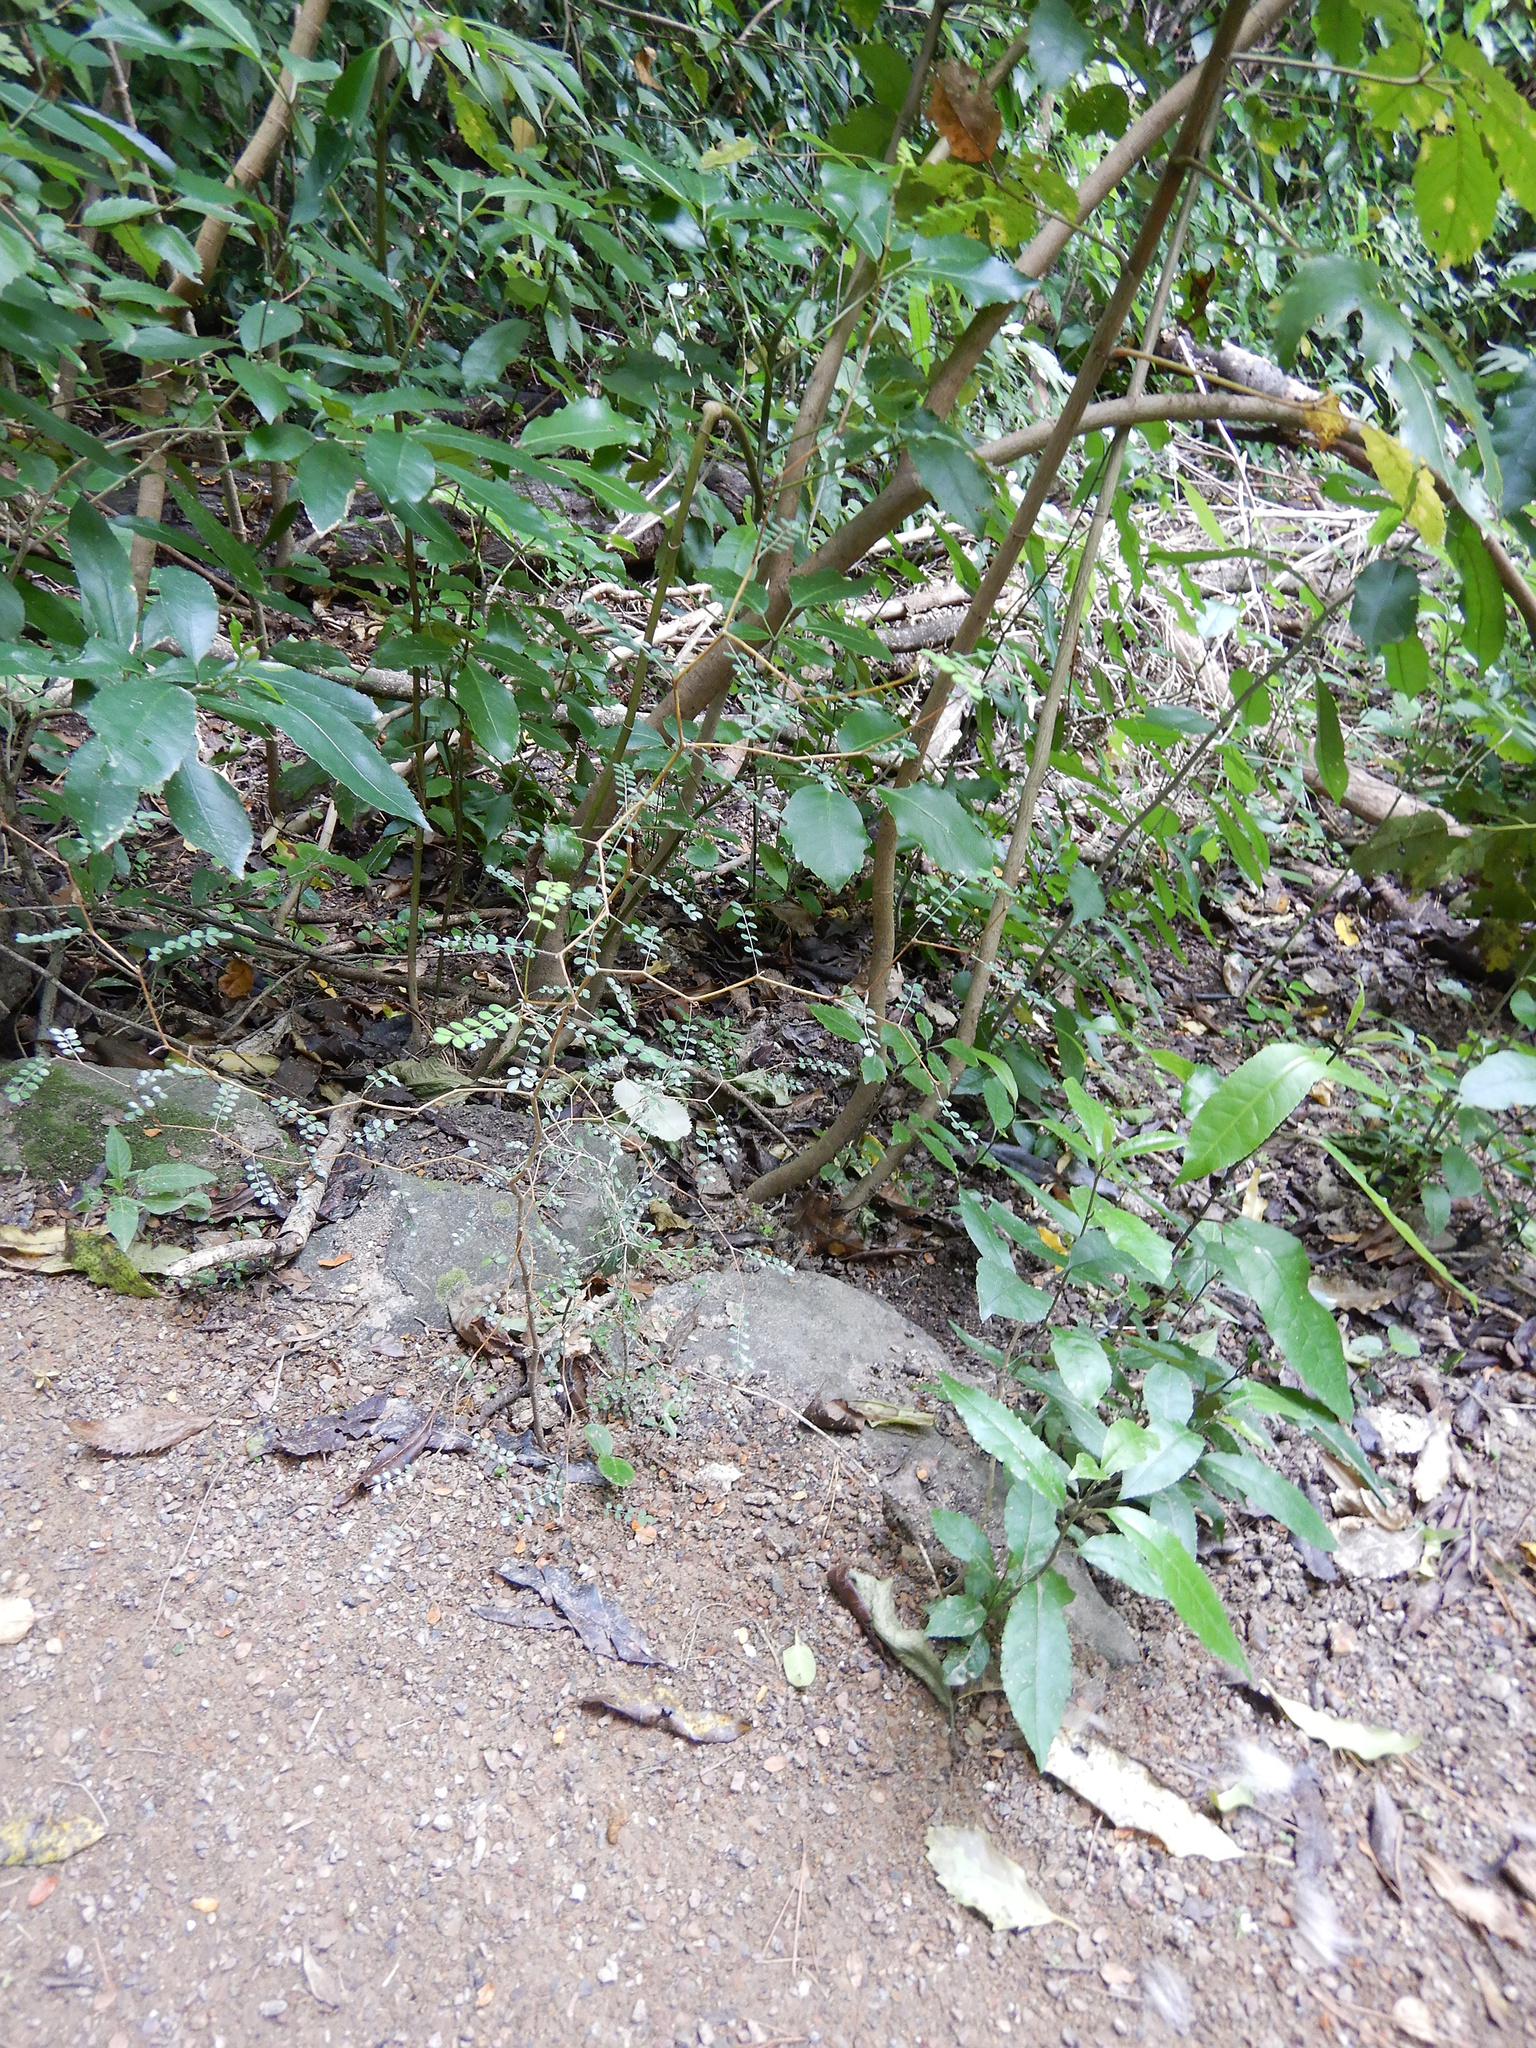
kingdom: Plantae
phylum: Tracheophyta
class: Magnoliopsida
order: Fabales
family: Fabaceae
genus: Sophora
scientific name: Sophora microphylla
